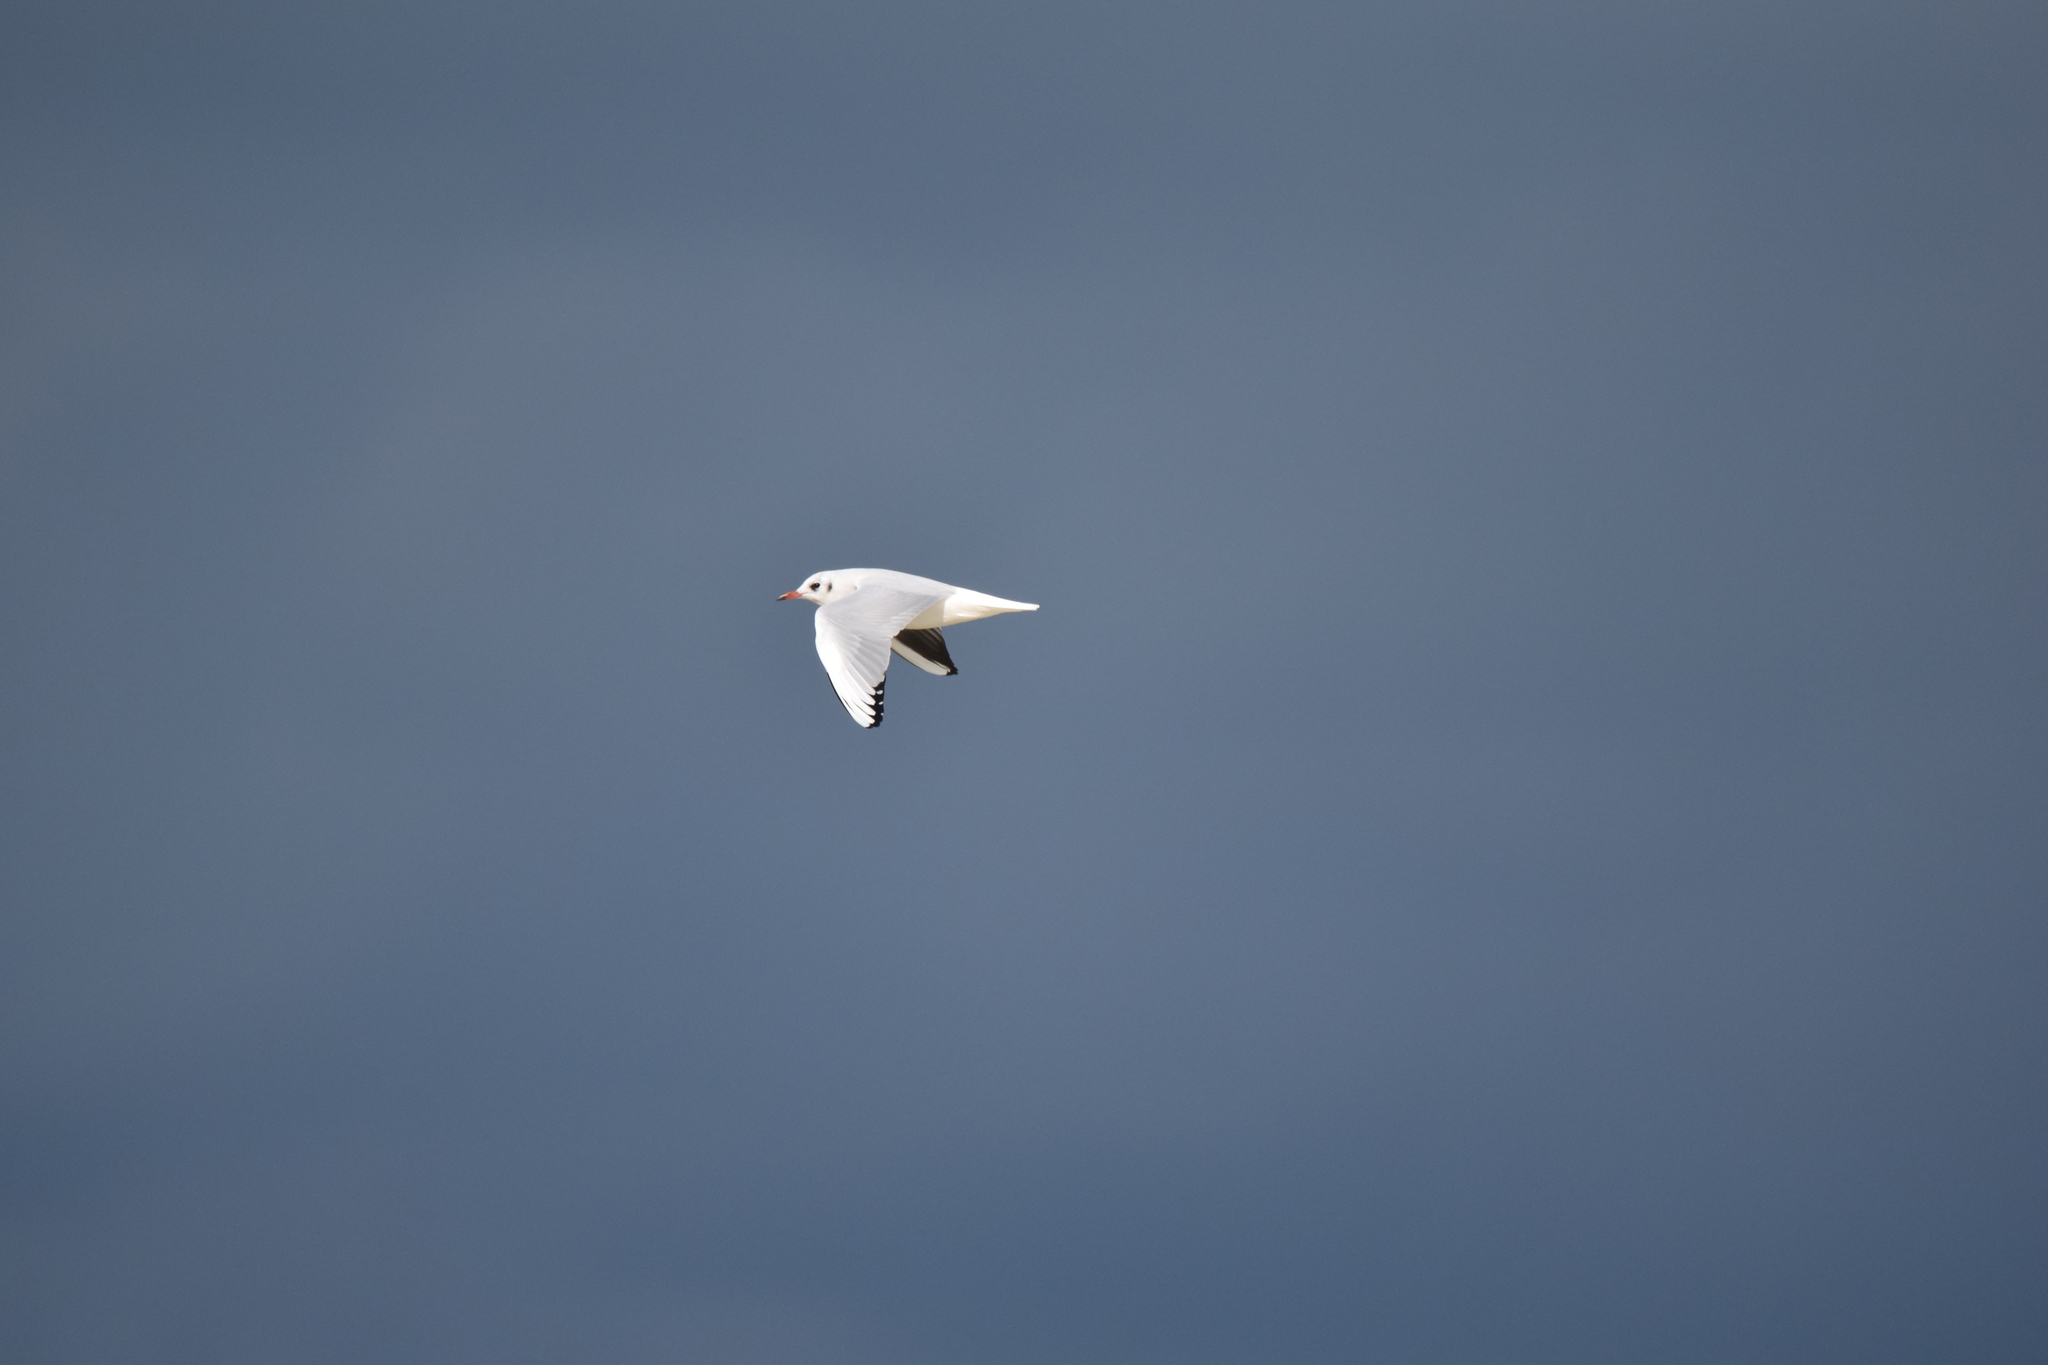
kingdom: Animalia
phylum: Chordata
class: Aves
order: Charadriiformes
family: Laridae
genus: Chroicocephalus
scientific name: Chroicocephalus ridibundus
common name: Black-headed gull
